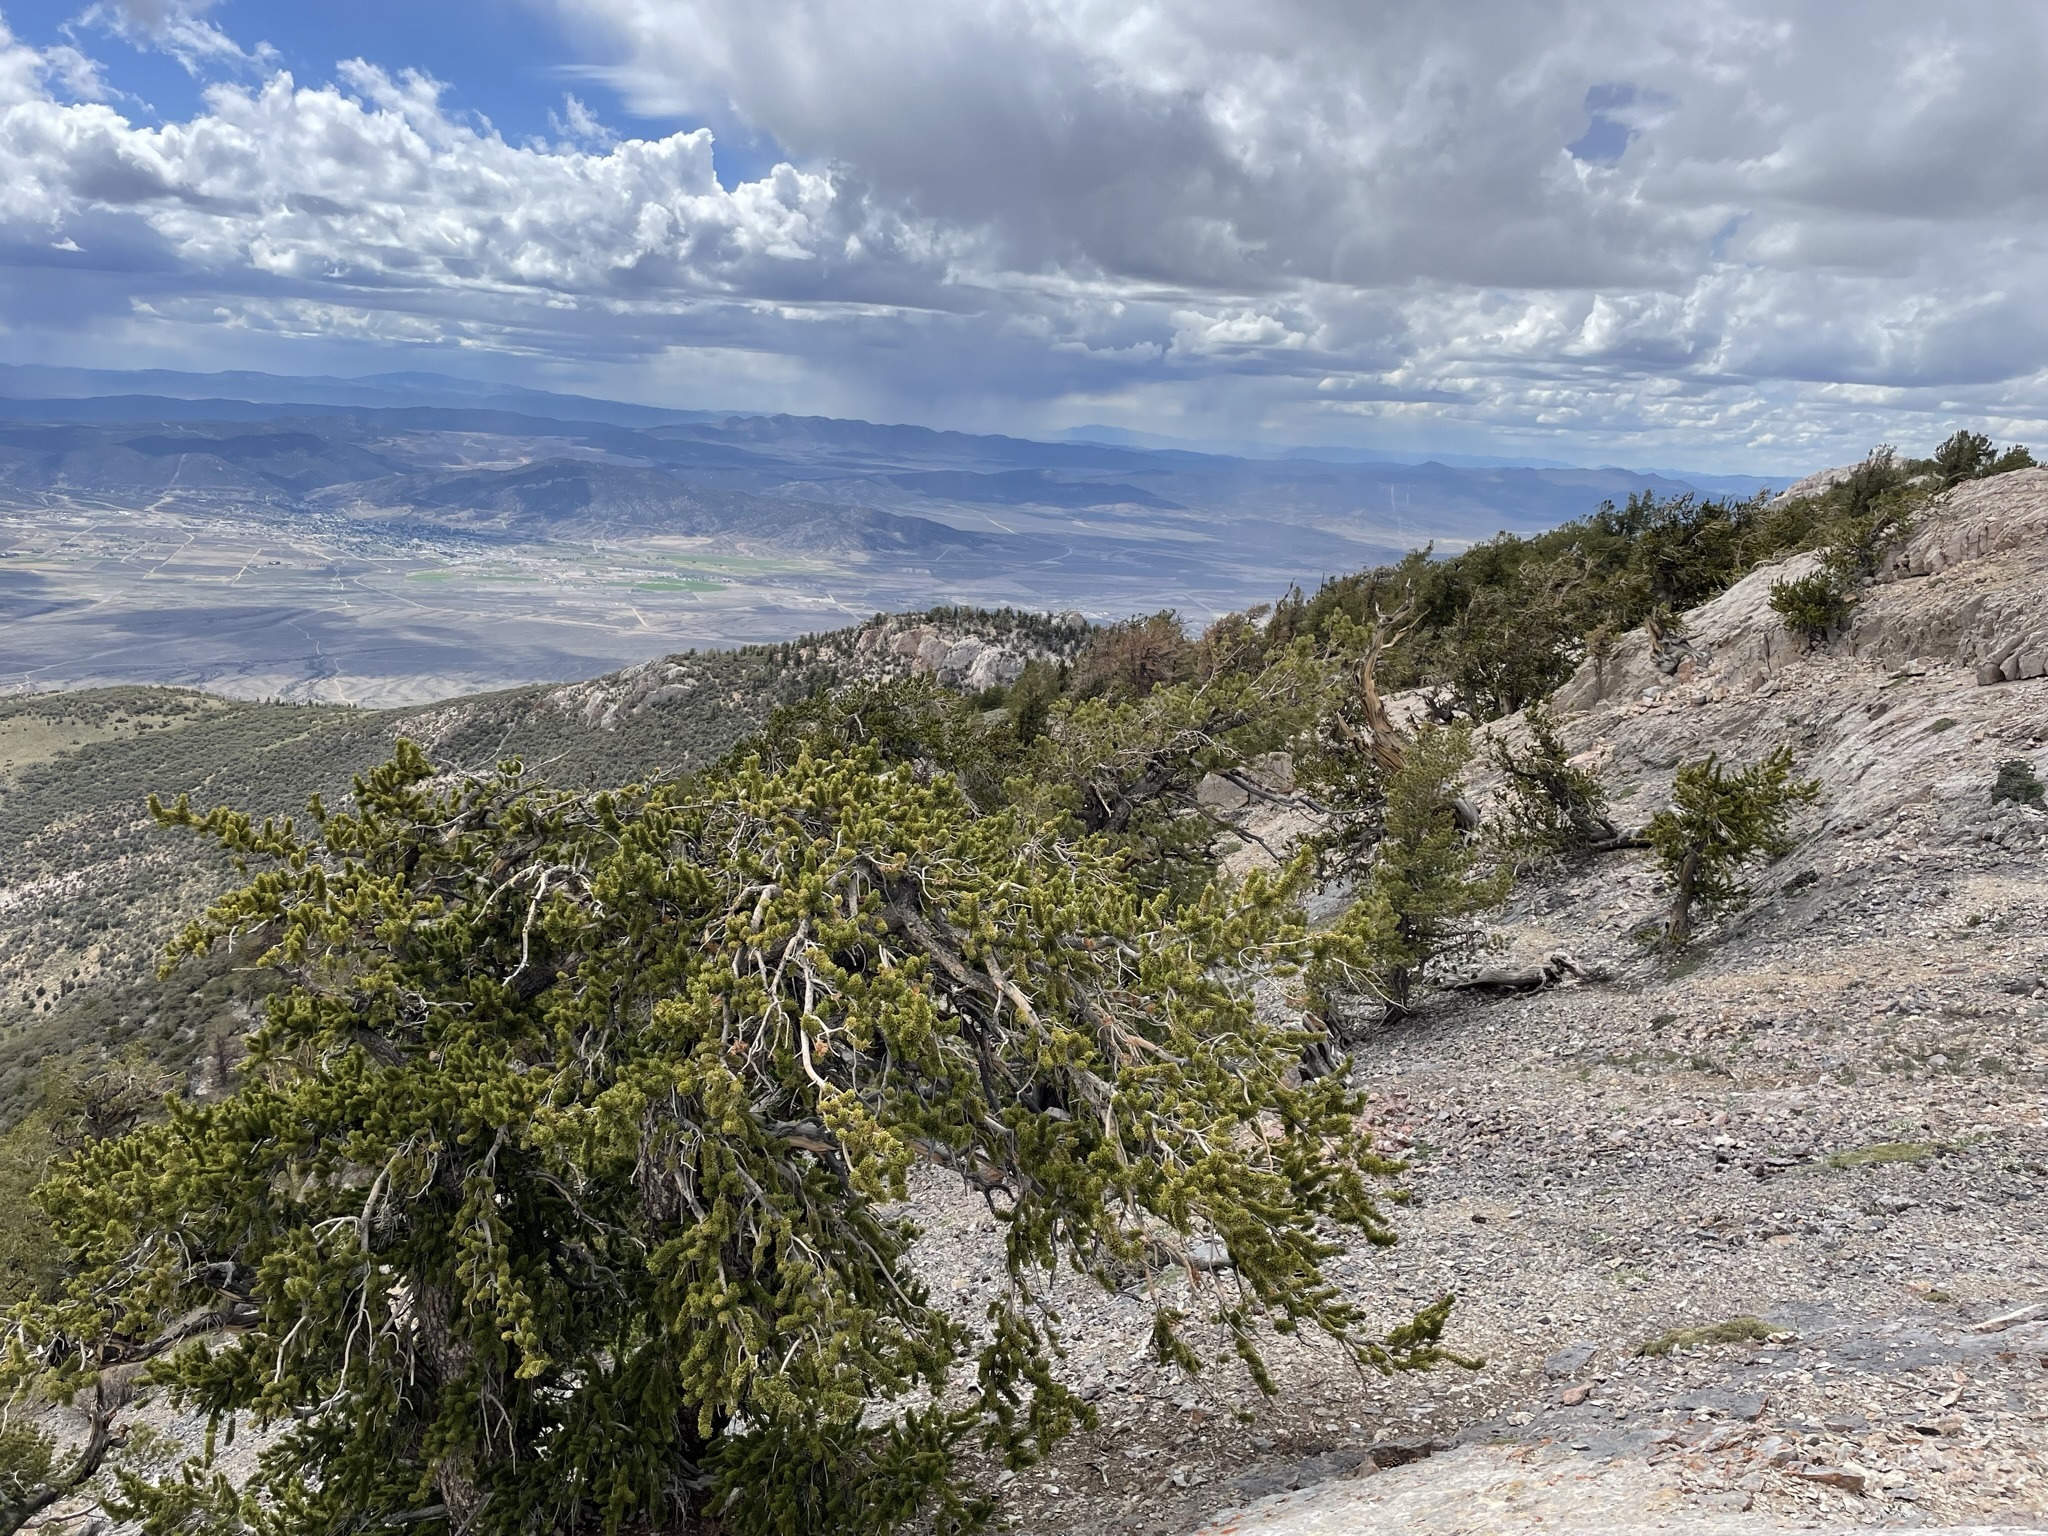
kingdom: Plantae
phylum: Tracheophyta
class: Pinopsida
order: Pinales
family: Pinaceae
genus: Pinus
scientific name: Pinus longaeva
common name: Intermountain bristlecone pine
